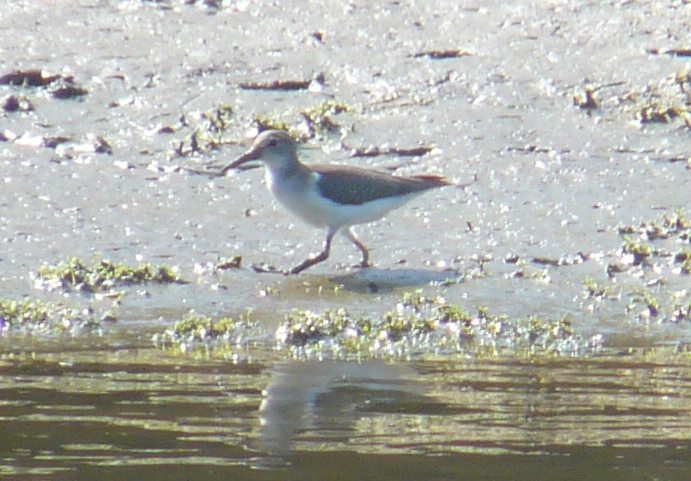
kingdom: Animalia
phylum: Chordata
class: Aves
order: Charadriiformes
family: Scolopacidae
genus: Actitis
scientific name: Actitis macularius
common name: Spotted sandpiper
